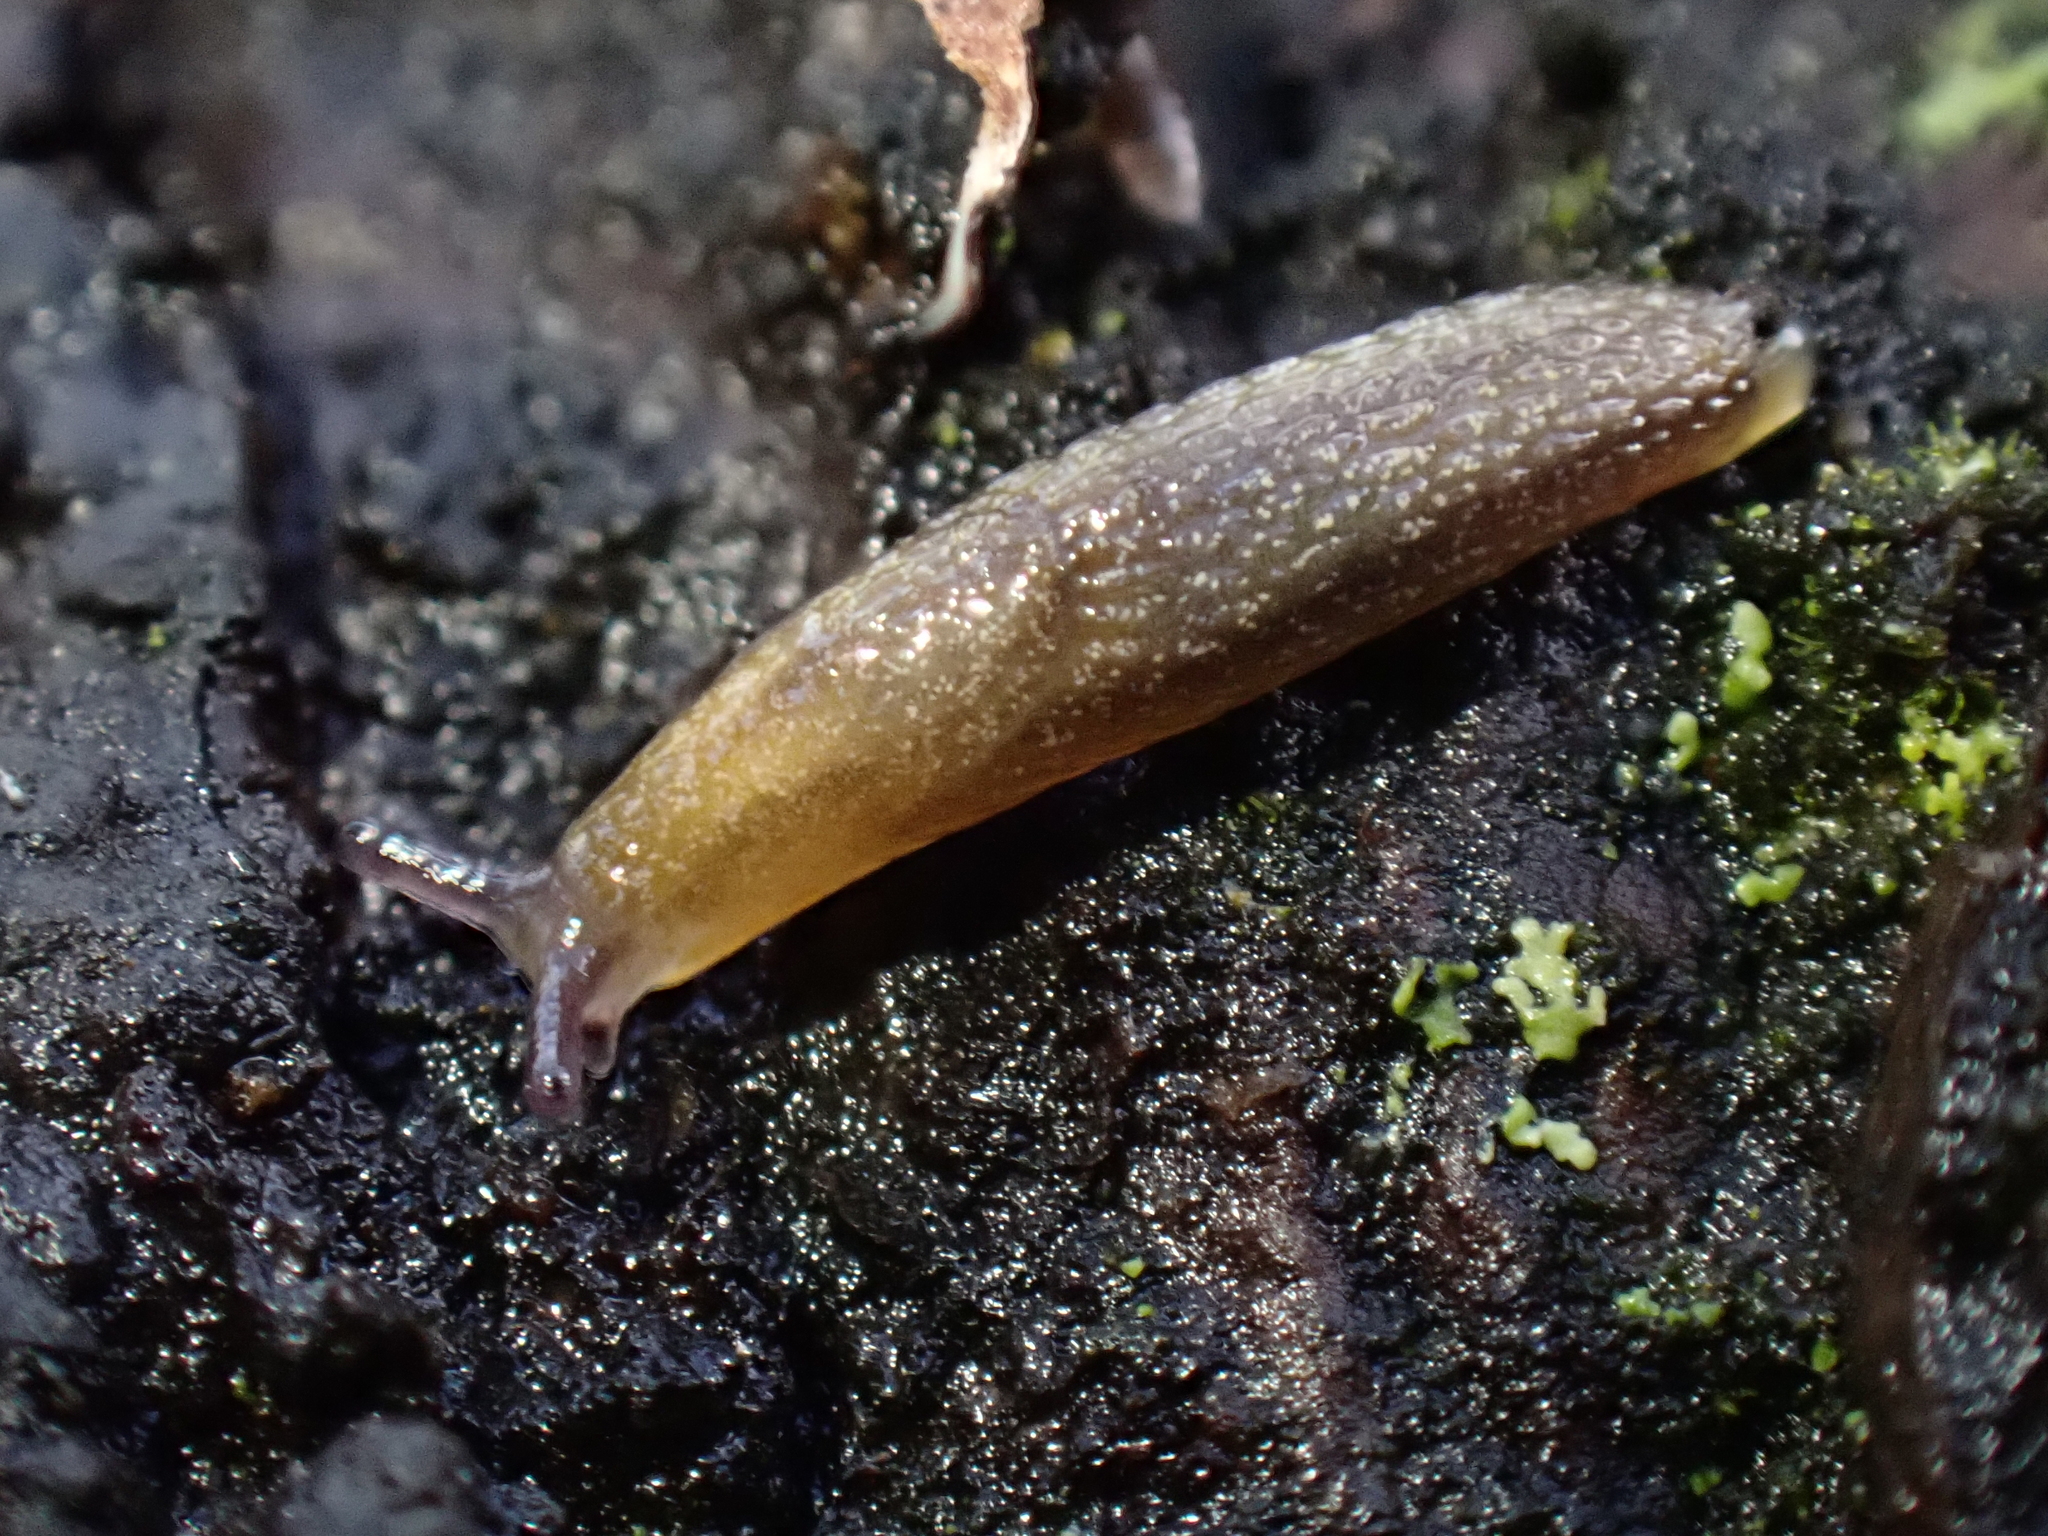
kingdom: Animalia
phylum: Mollusca
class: Gastropoda
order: Stylommatophora
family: Arionidae
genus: Arion
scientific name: Arion intermedius
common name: Hedgehog slug
